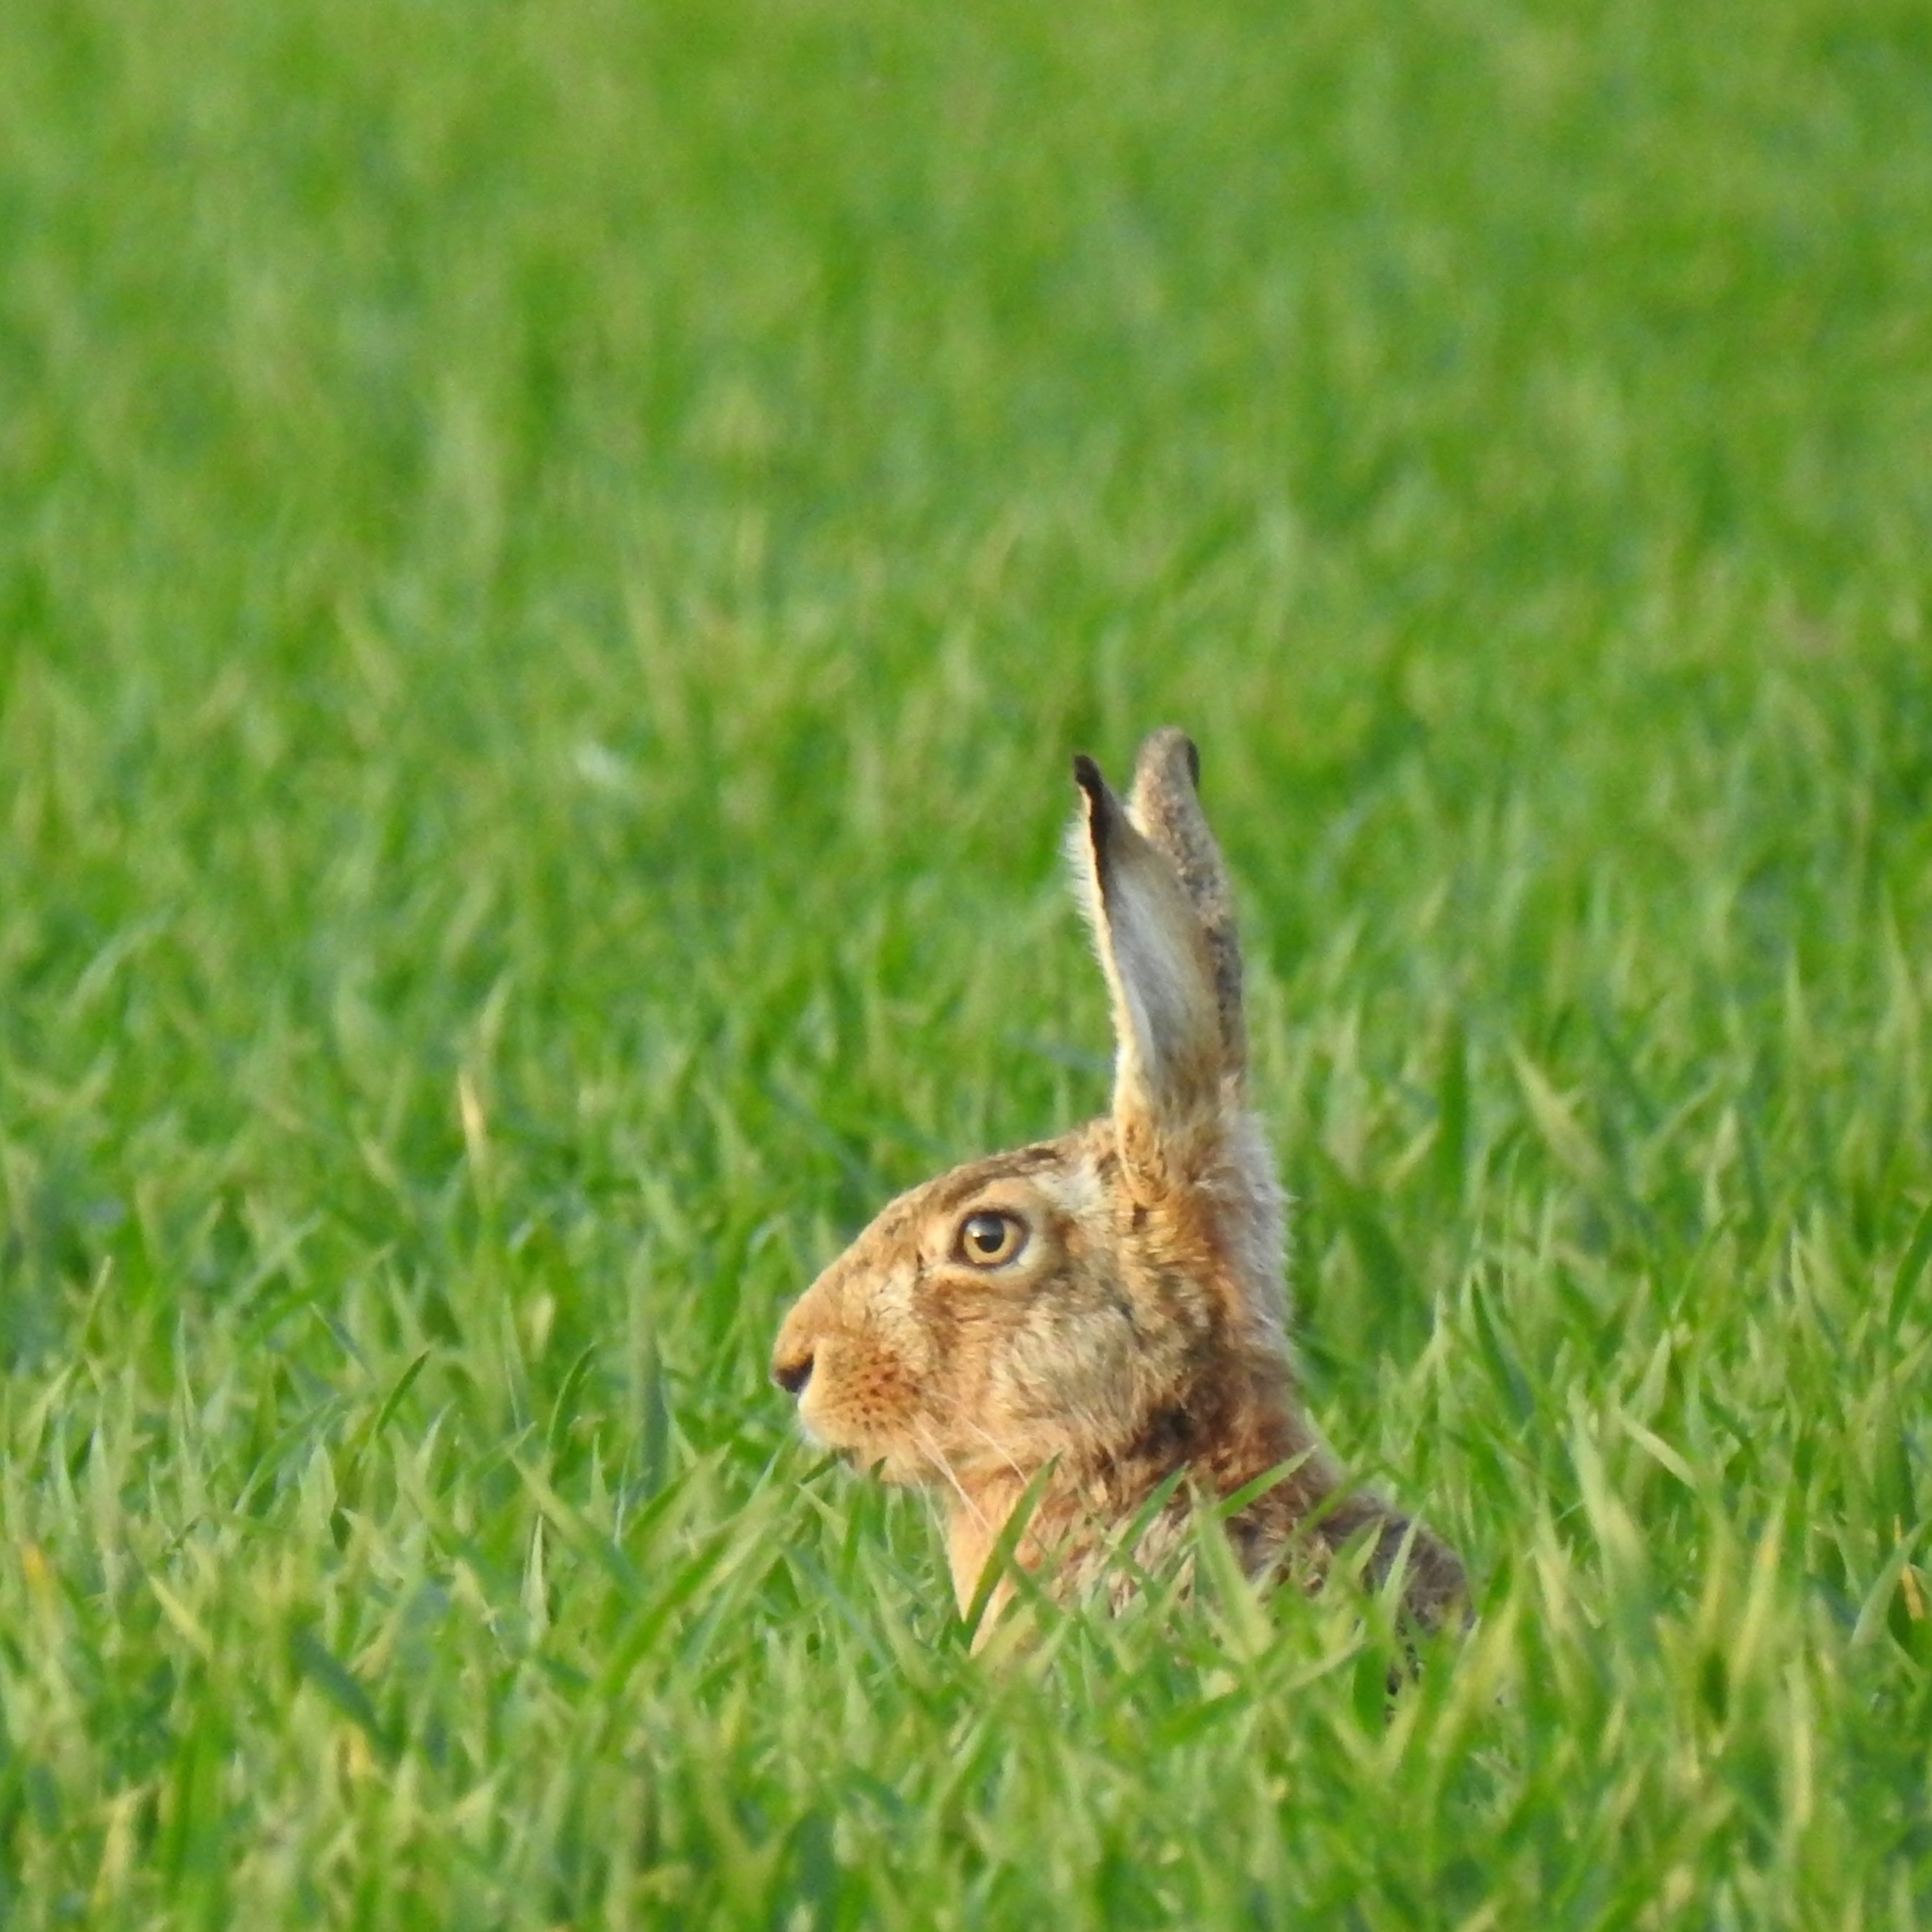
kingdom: Animalia
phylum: Chordata
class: Mammalia
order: Lagomorpha
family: Leporidae
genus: Lepus
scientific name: Lepus europaeus
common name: European hare
